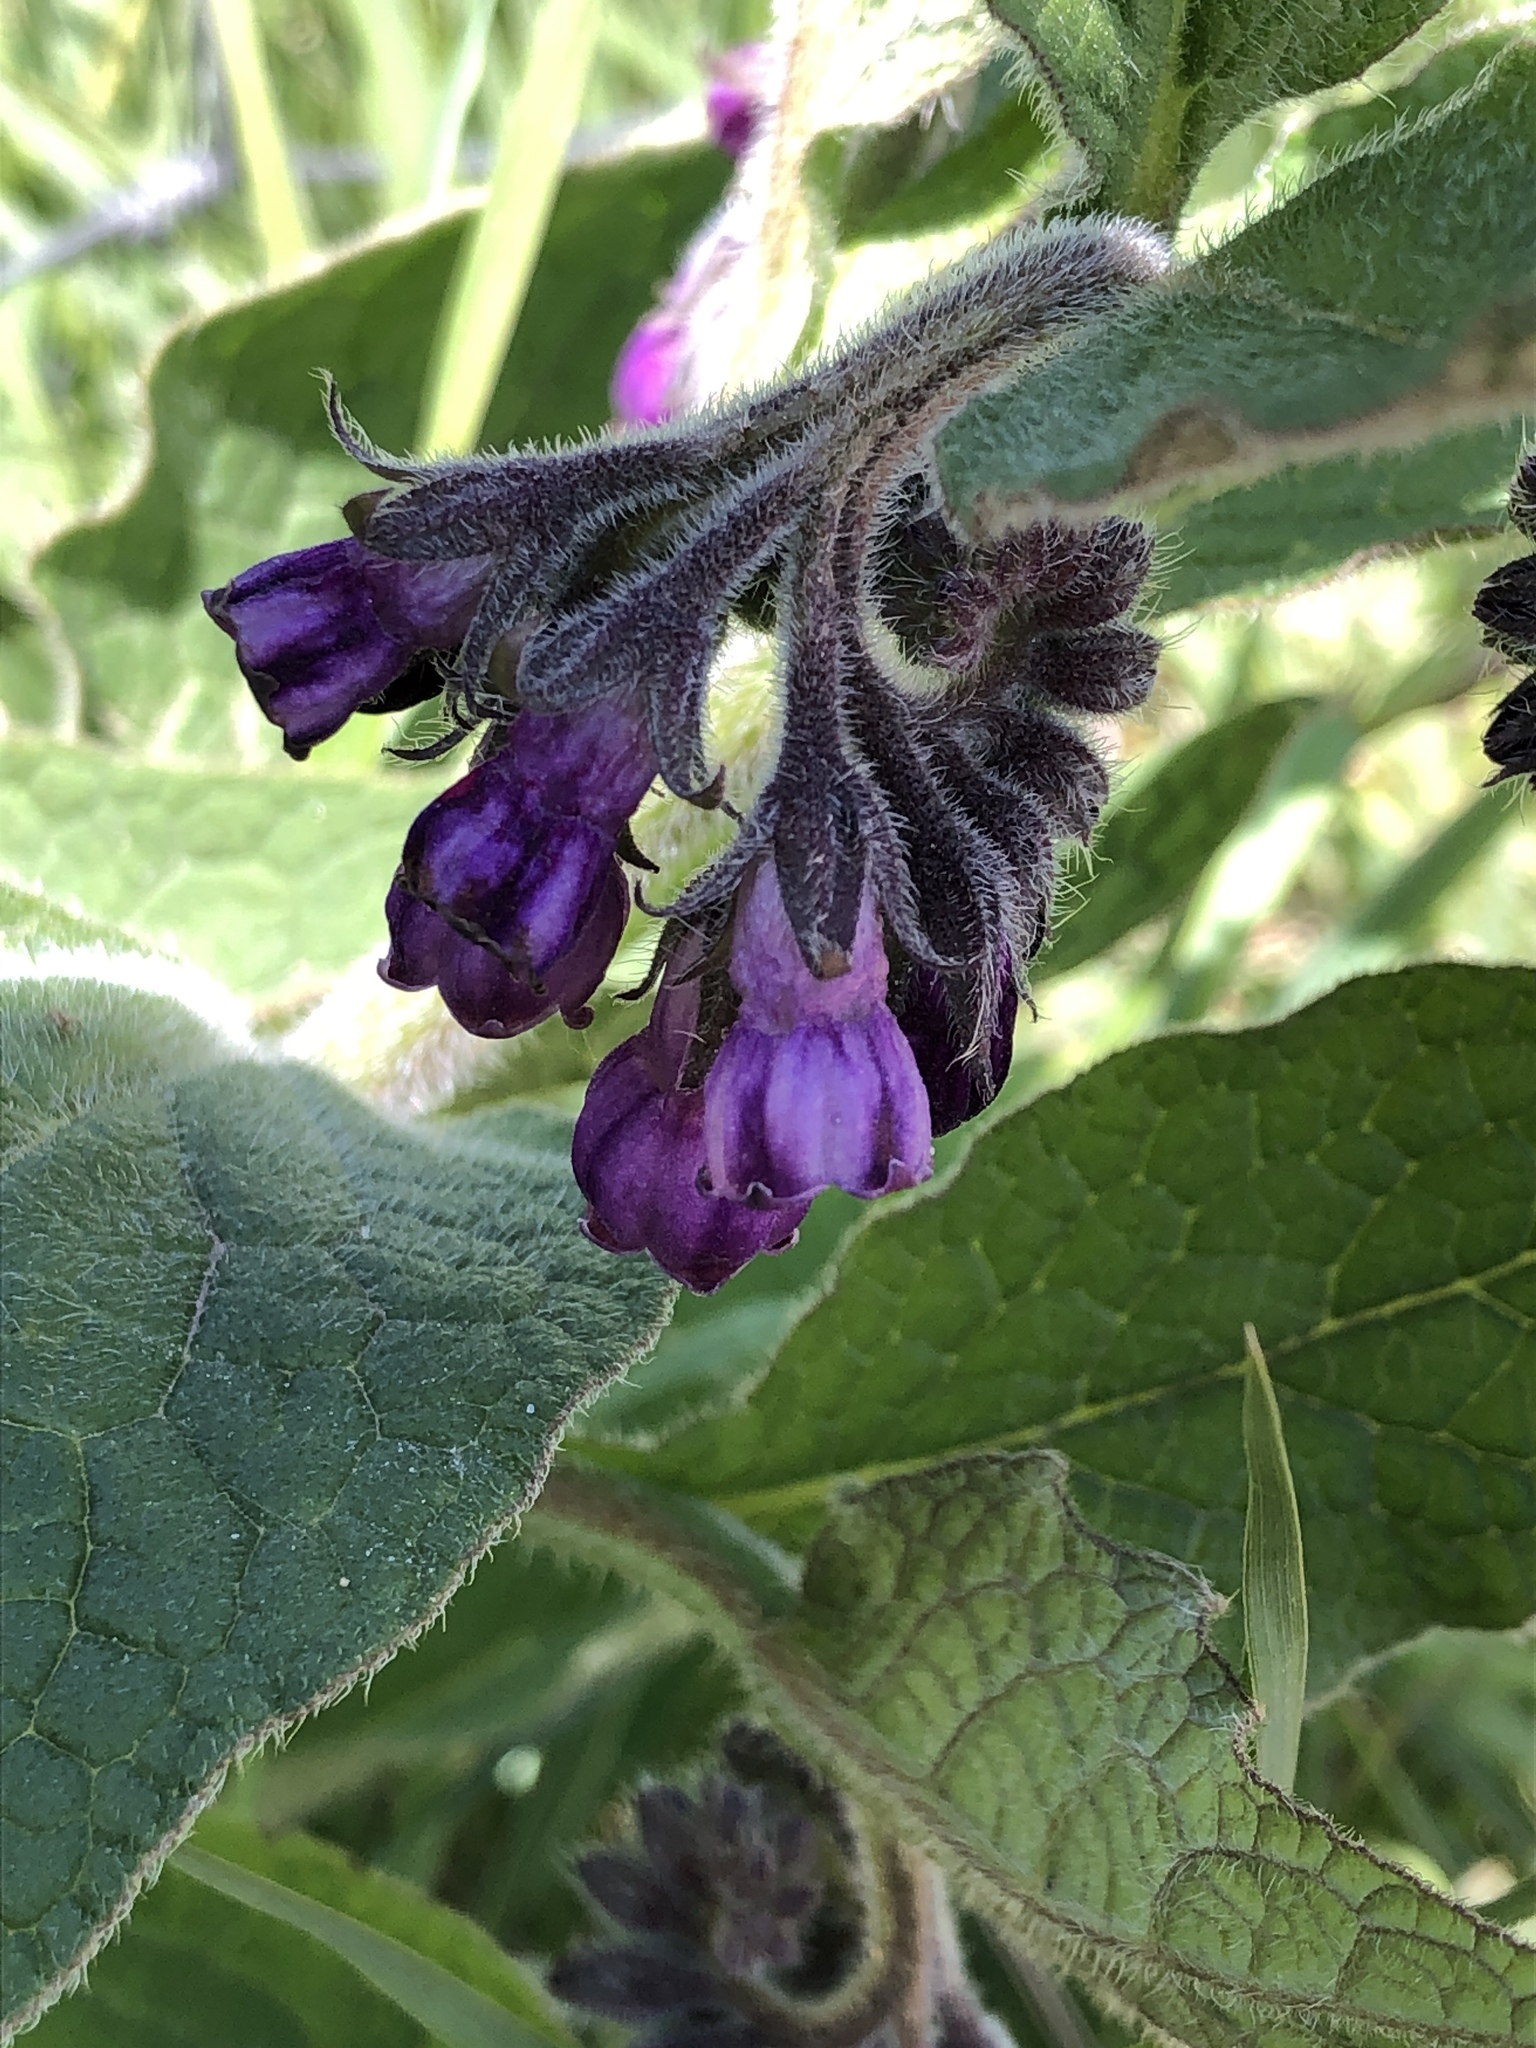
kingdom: Plantae
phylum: Tracheophyta
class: Magnoliopsida
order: Boraginales
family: Boraginaceae
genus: Symphytum
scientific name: Symphytum officinale
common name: Common comfrey
